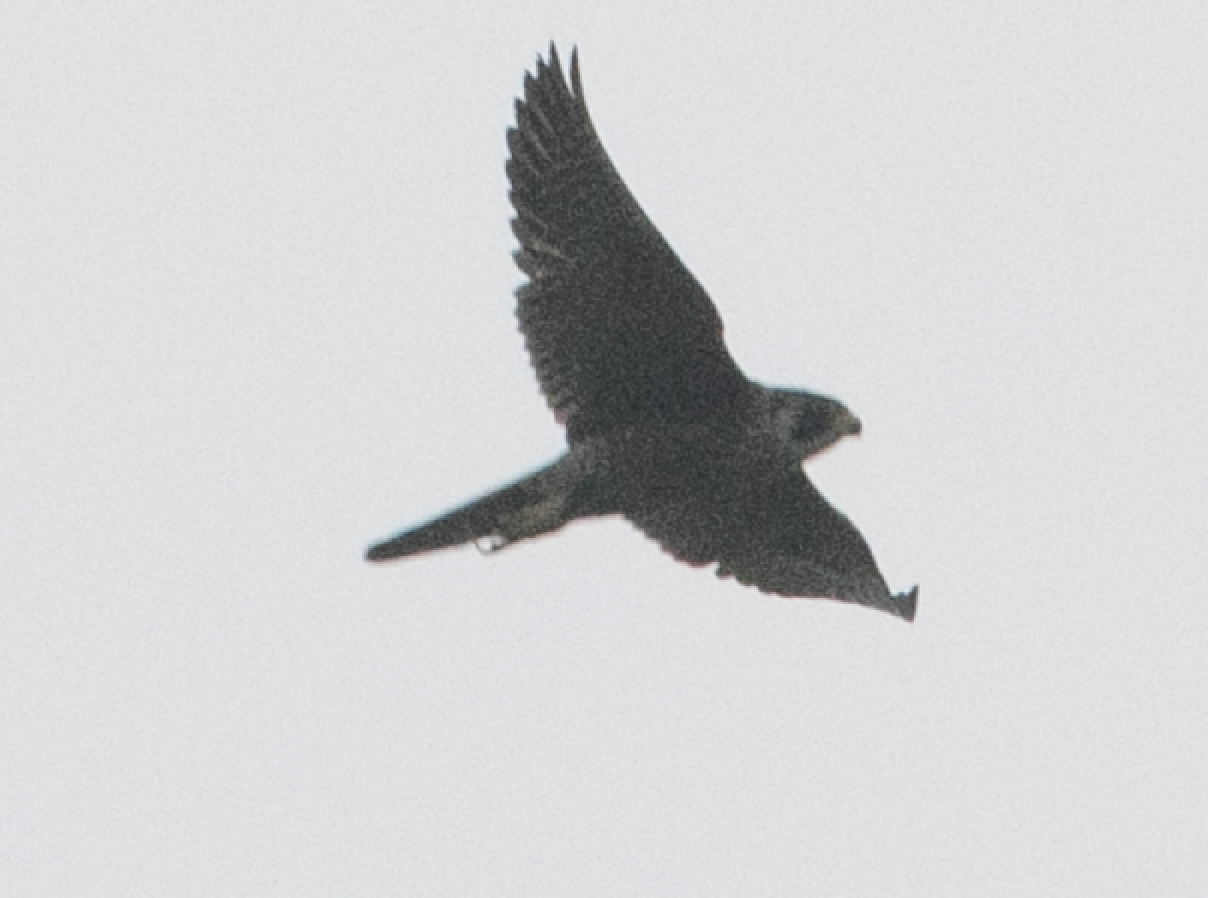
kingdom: Animalia
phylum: Chordata
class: Aves
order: Falconiformes
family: Falconidae
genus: Falco
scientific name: Falco peregrinus
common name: Peregrine falcon
